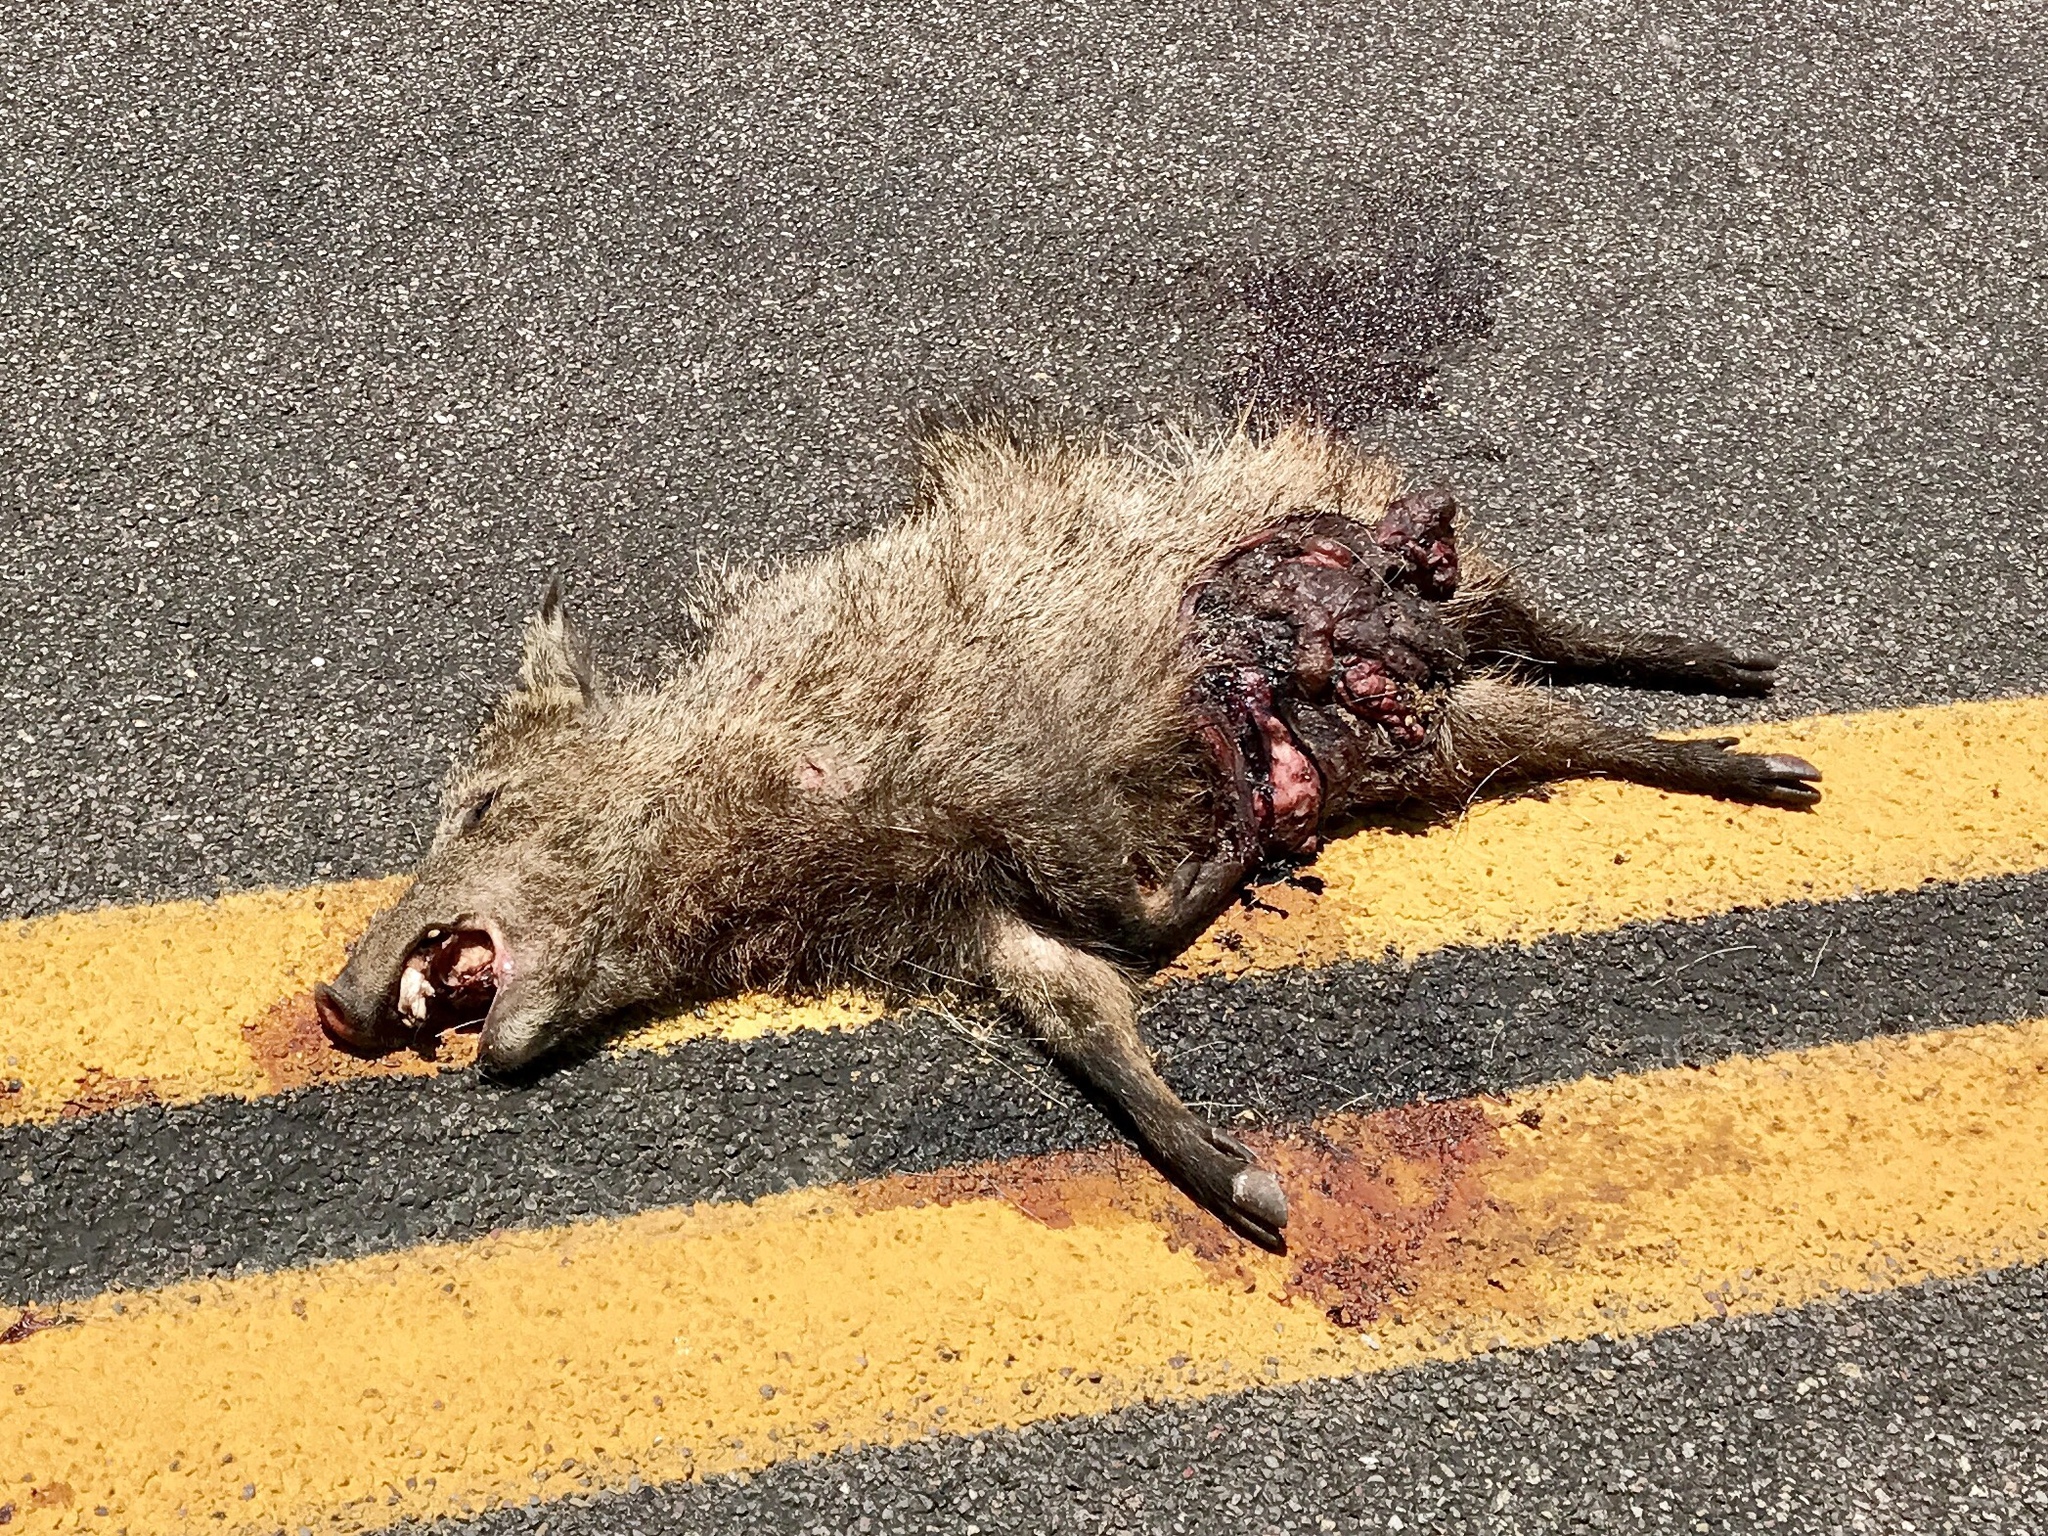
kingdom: Animalia
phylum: Chordata
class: Mammalia
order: Artiodactyla
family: Tayassuidae
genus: Pecari
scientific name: Pecari tajacu
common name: Collared peccary
